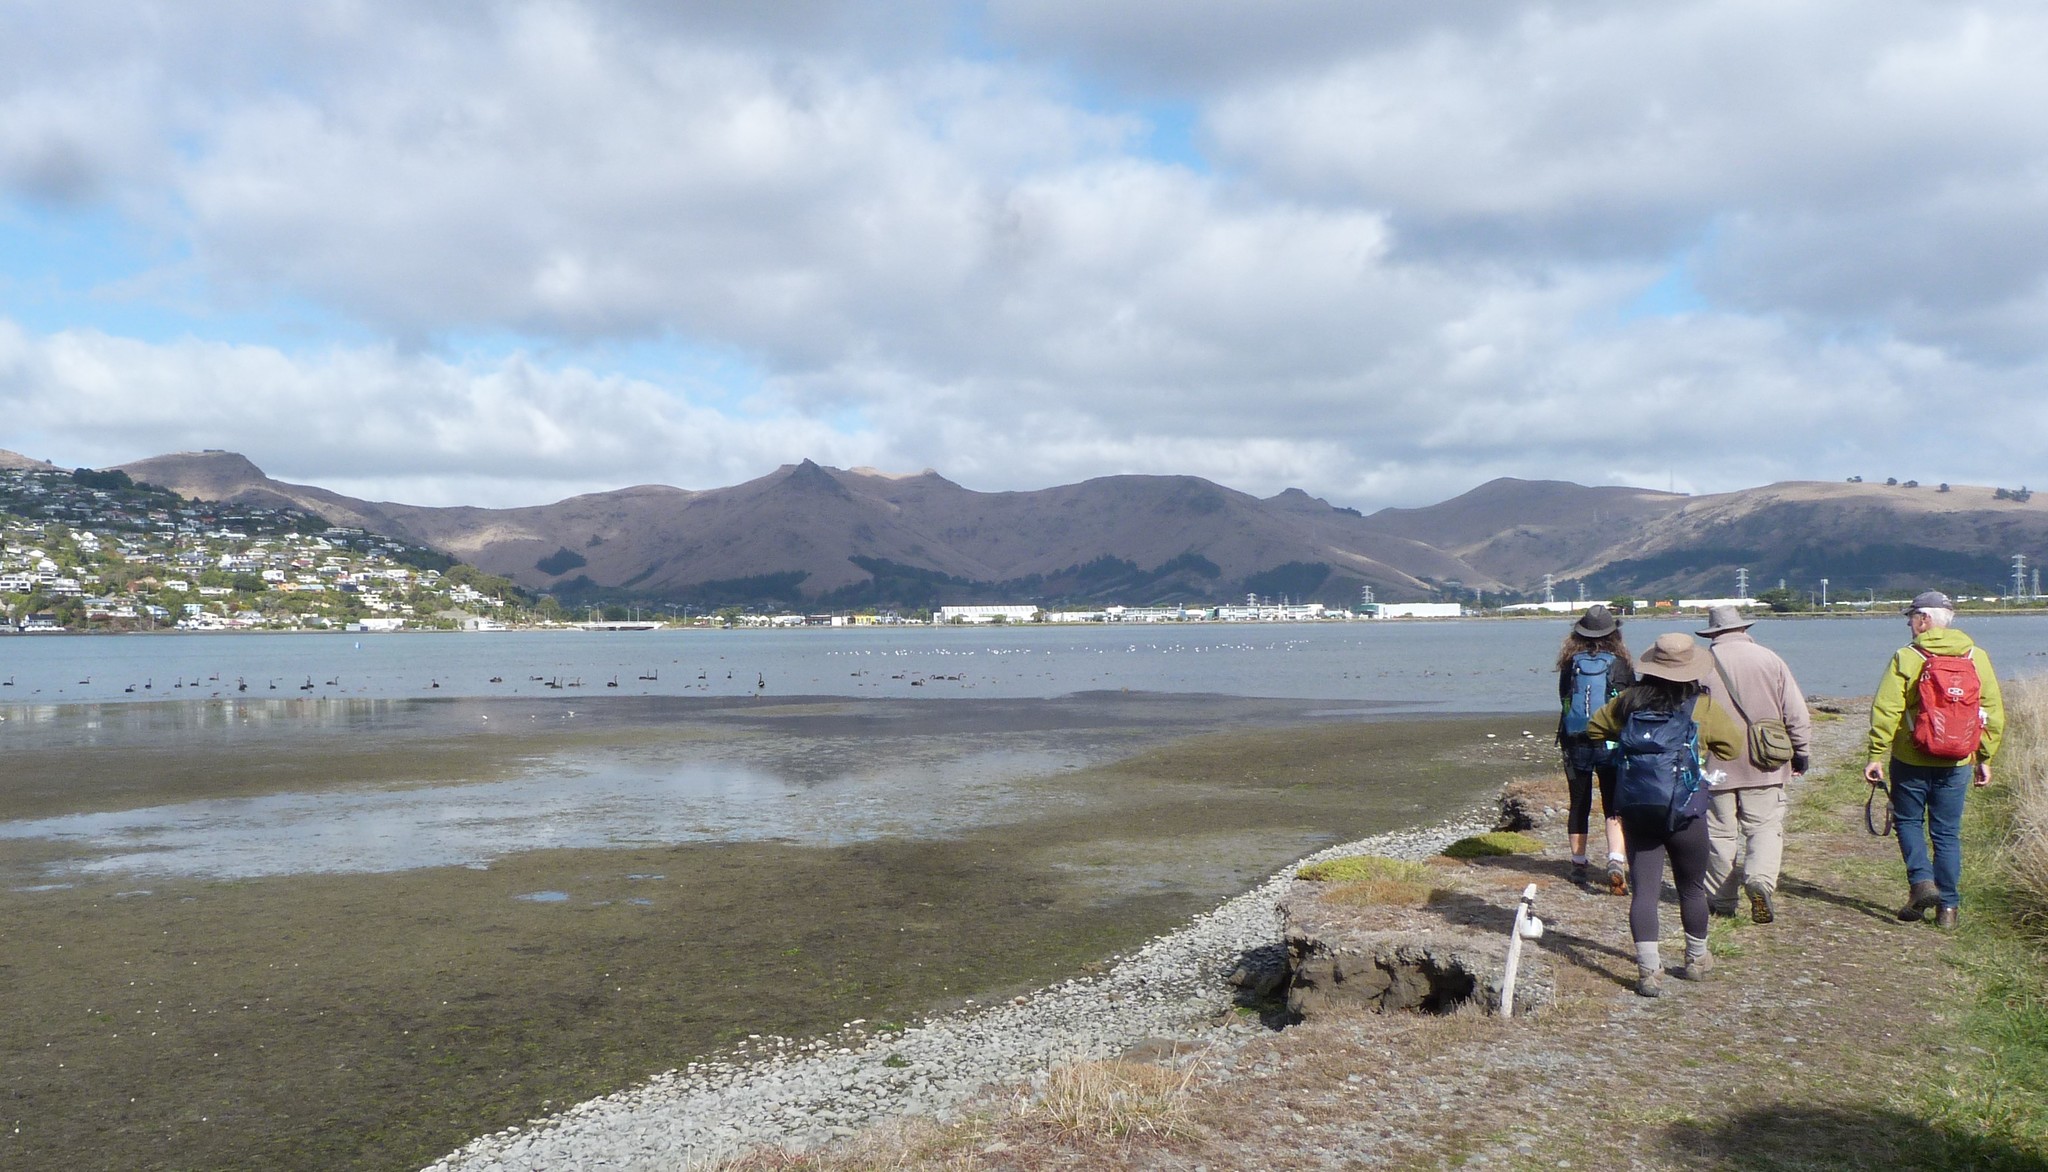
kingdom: Animalia
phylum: Chordata
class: Aves
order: Anseriformes
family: Anatidae
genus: Cygnus
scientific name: Cygnus atratus
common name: Black swan
